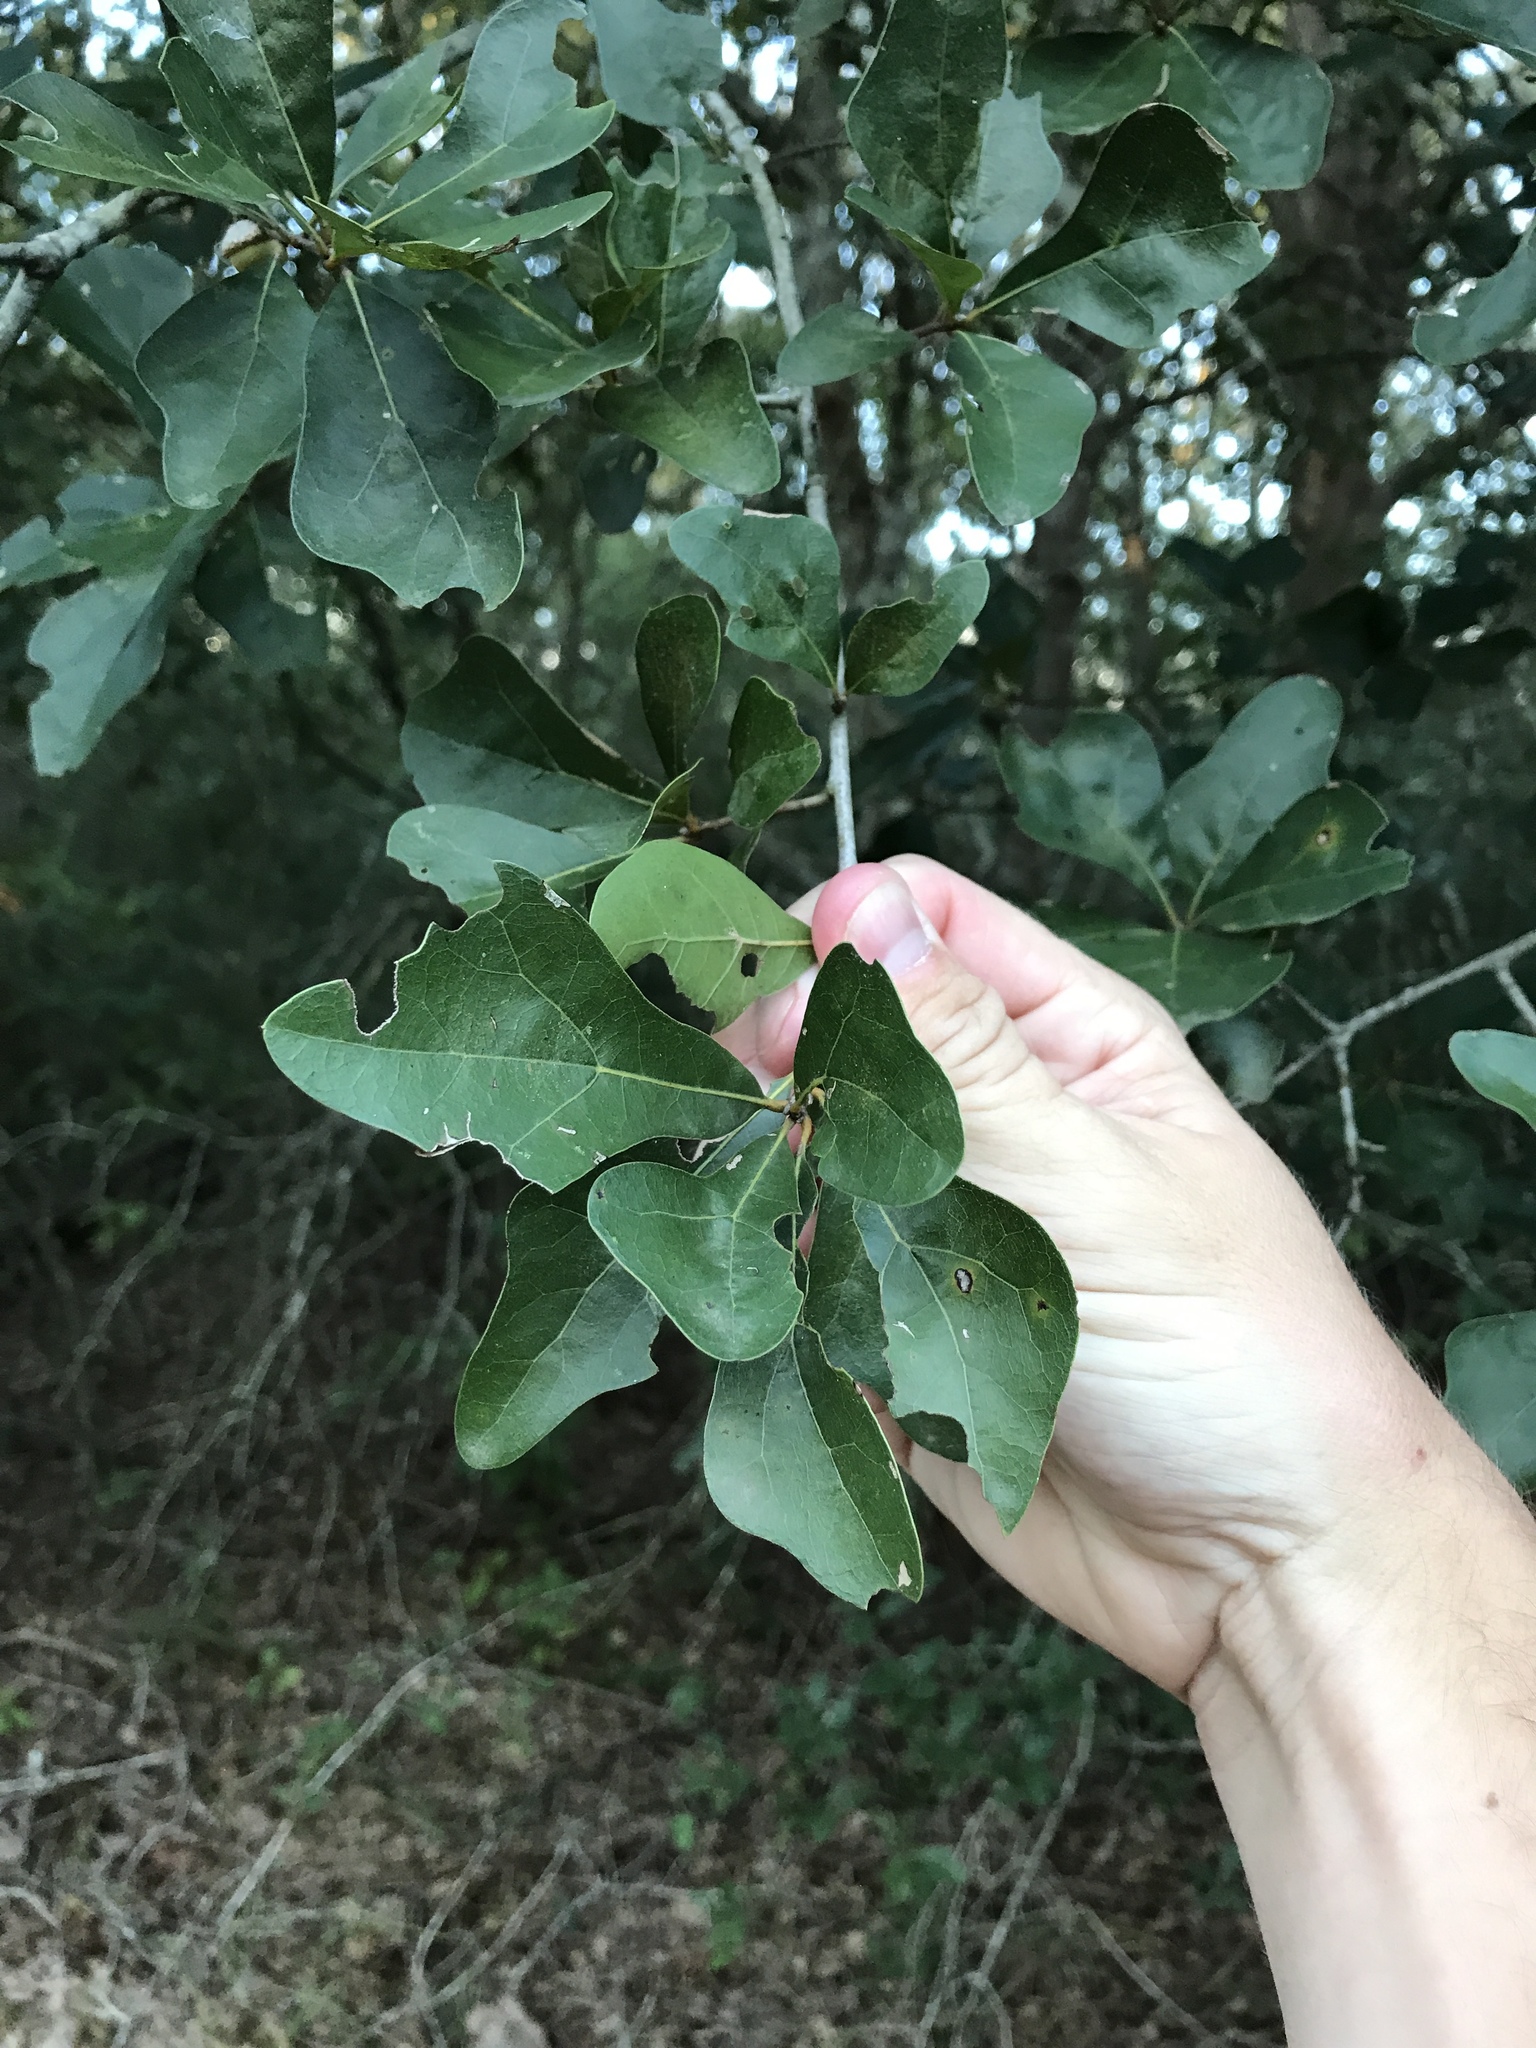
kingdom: Plantae
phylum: Tracheophyta
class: Magnoliopsida
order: Fagales
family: Fagaceae
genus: Quercus
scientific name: Quercus nigra
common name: Water oak
